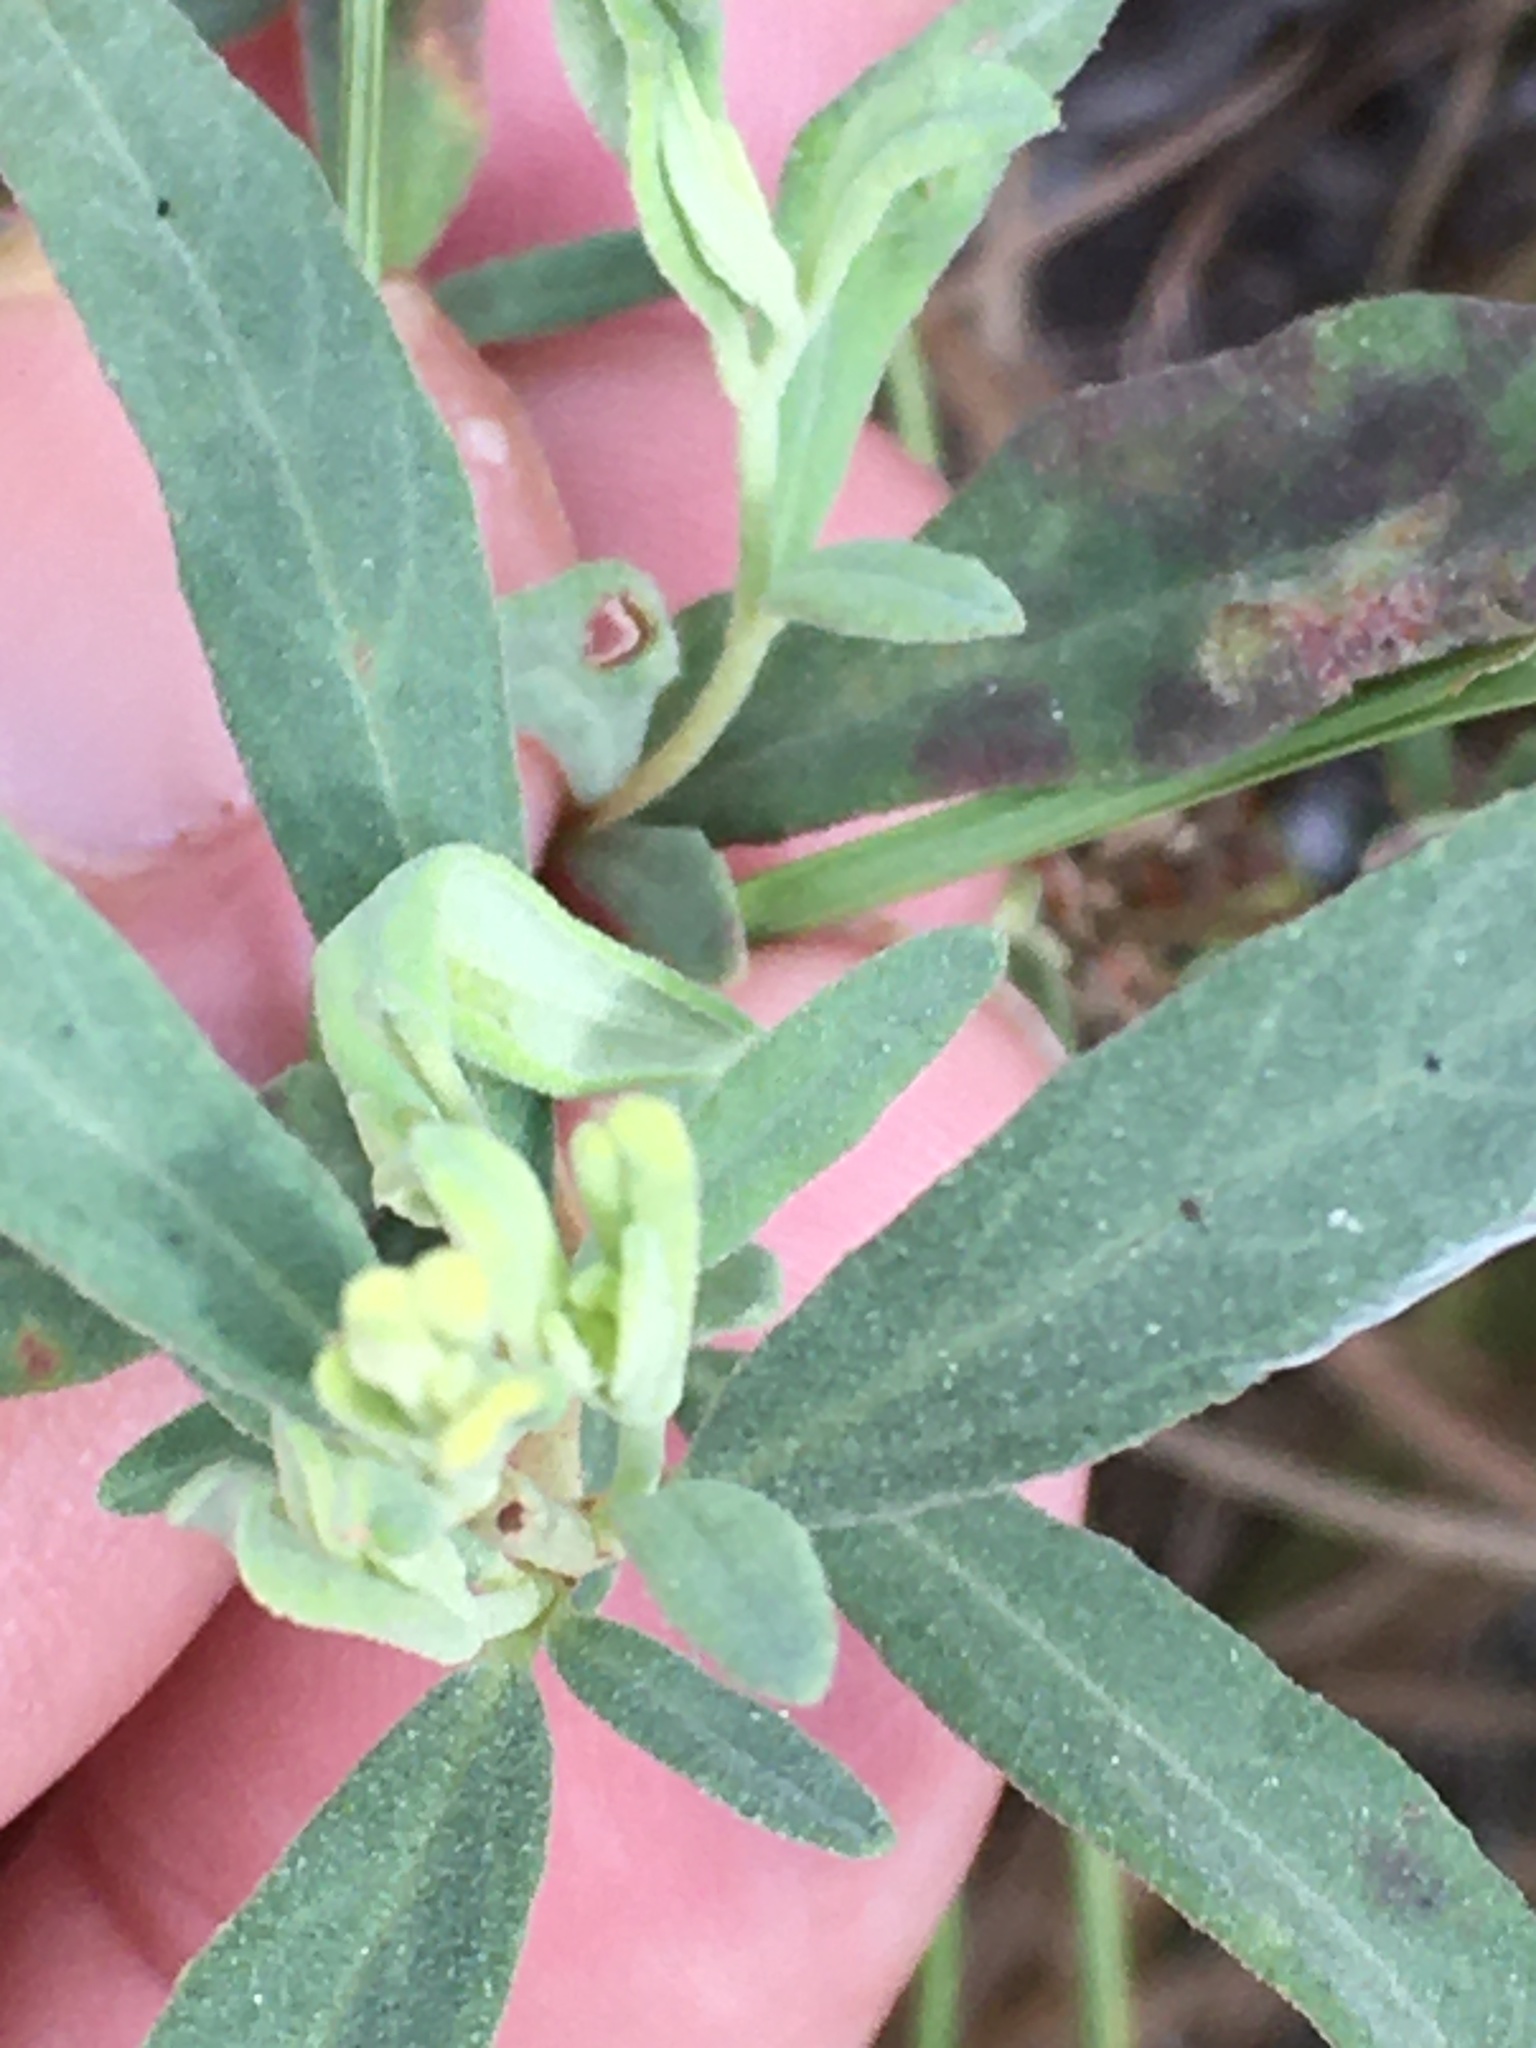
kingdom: Plantae
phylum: Tracheophyta
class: Magnoliopsida
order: Malvales
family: Cistaceae
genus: Crocanthemum
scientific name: Crocanthemum rosmarinifolium
